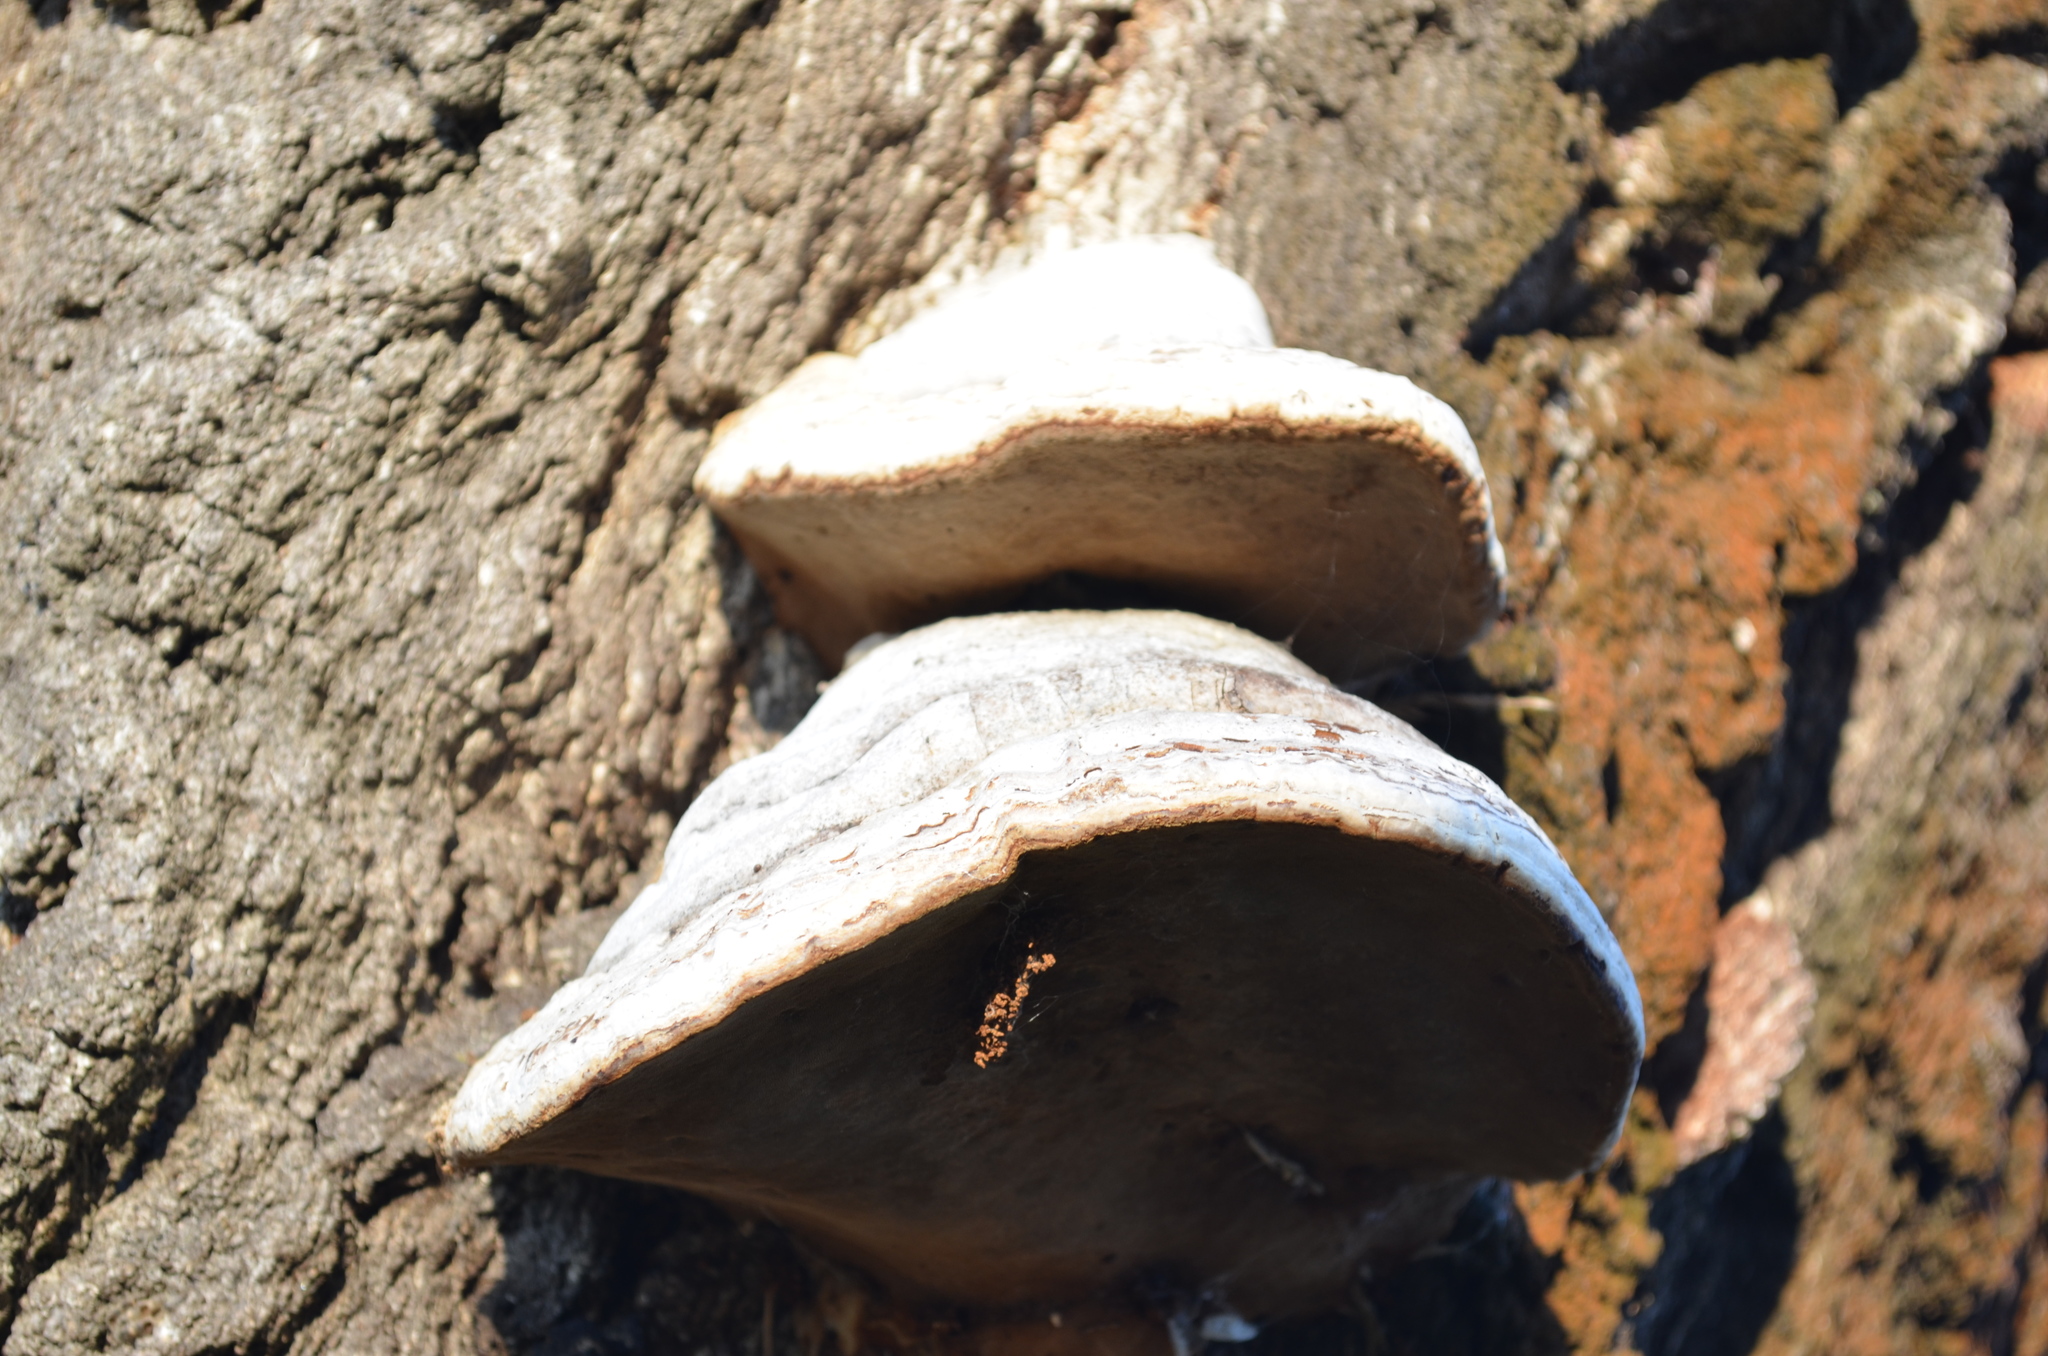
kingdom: Fungi
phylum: Basidiomycota
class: Agaricomycetes
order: Polyporales
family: Polyporaceae
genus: Fomes
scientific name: Fomes fomentarius
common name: Hoof fungus
